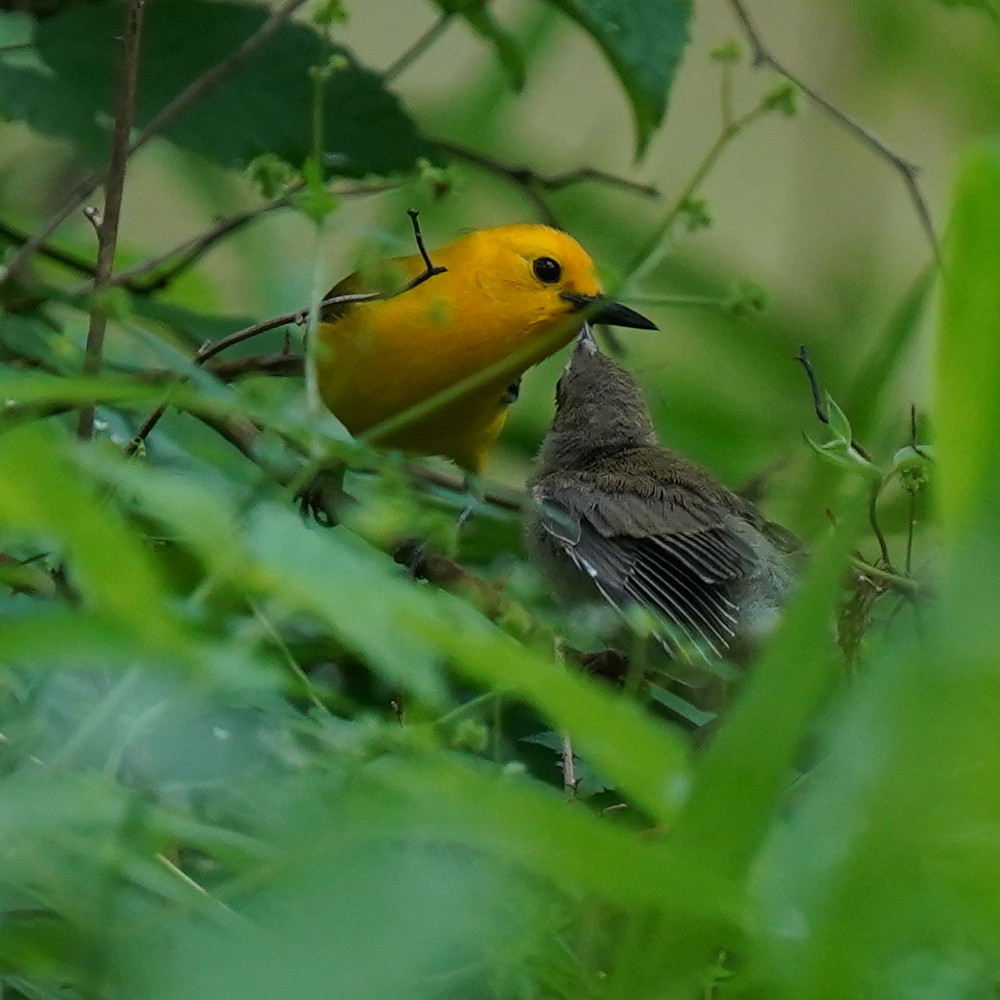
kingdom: Animalia
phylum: Chordata
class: Aves
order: Passeriformes
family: Parulidae
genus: Protonotaria
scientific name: Protonotaria citrea
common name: Prothonotary warbler
